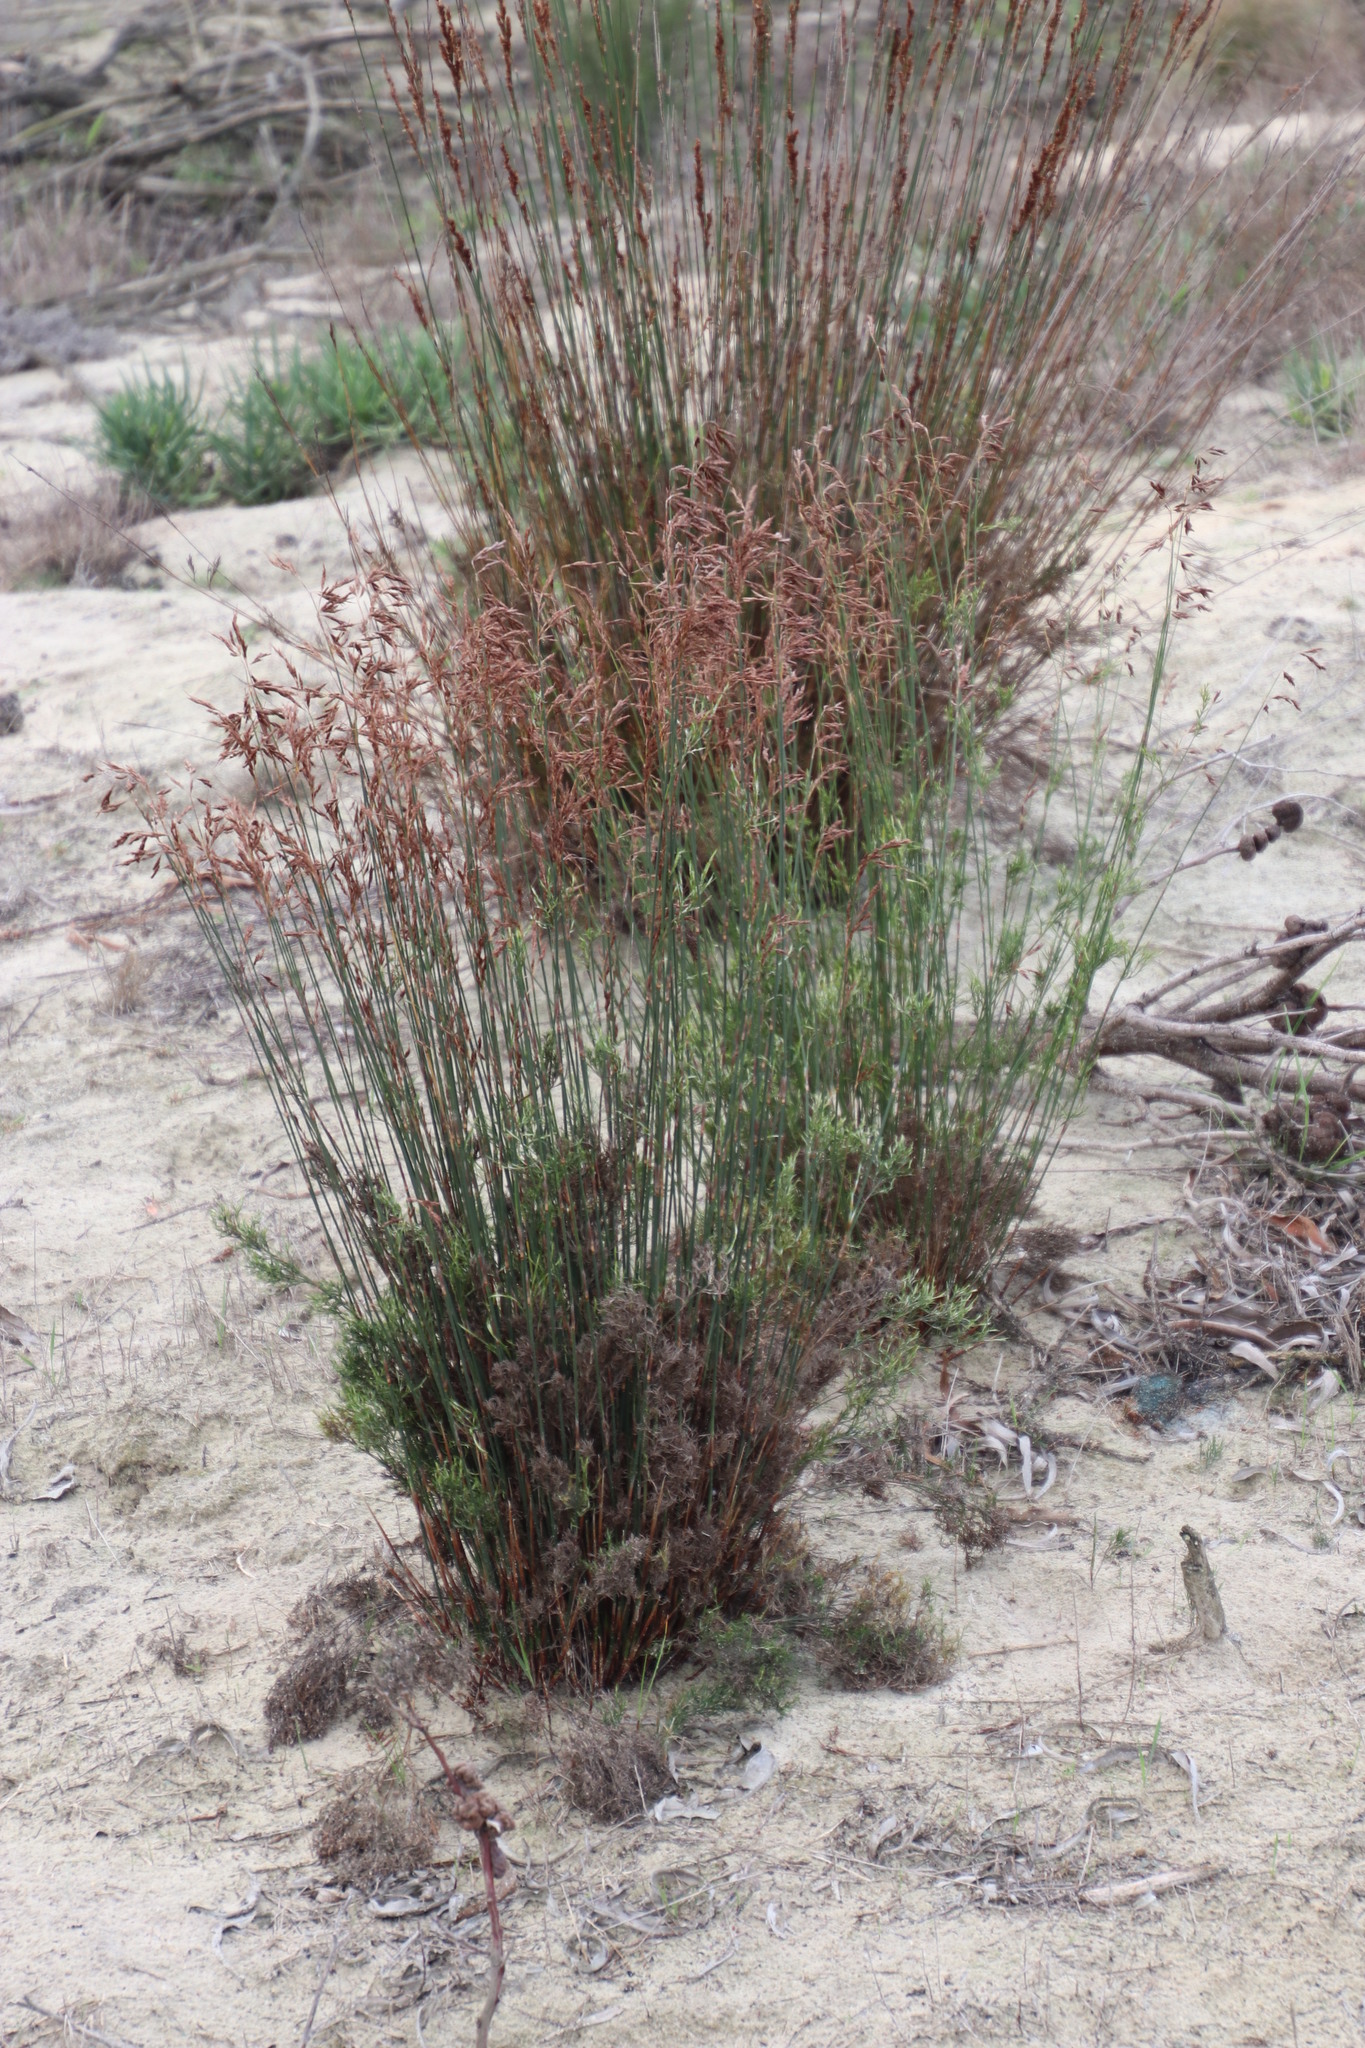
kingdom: Plantae
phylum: Tracheophyta
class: Liliopsida
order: Poales
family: Restionaceae
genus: Thamnochortus
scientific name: Thamnochortus punctatus
